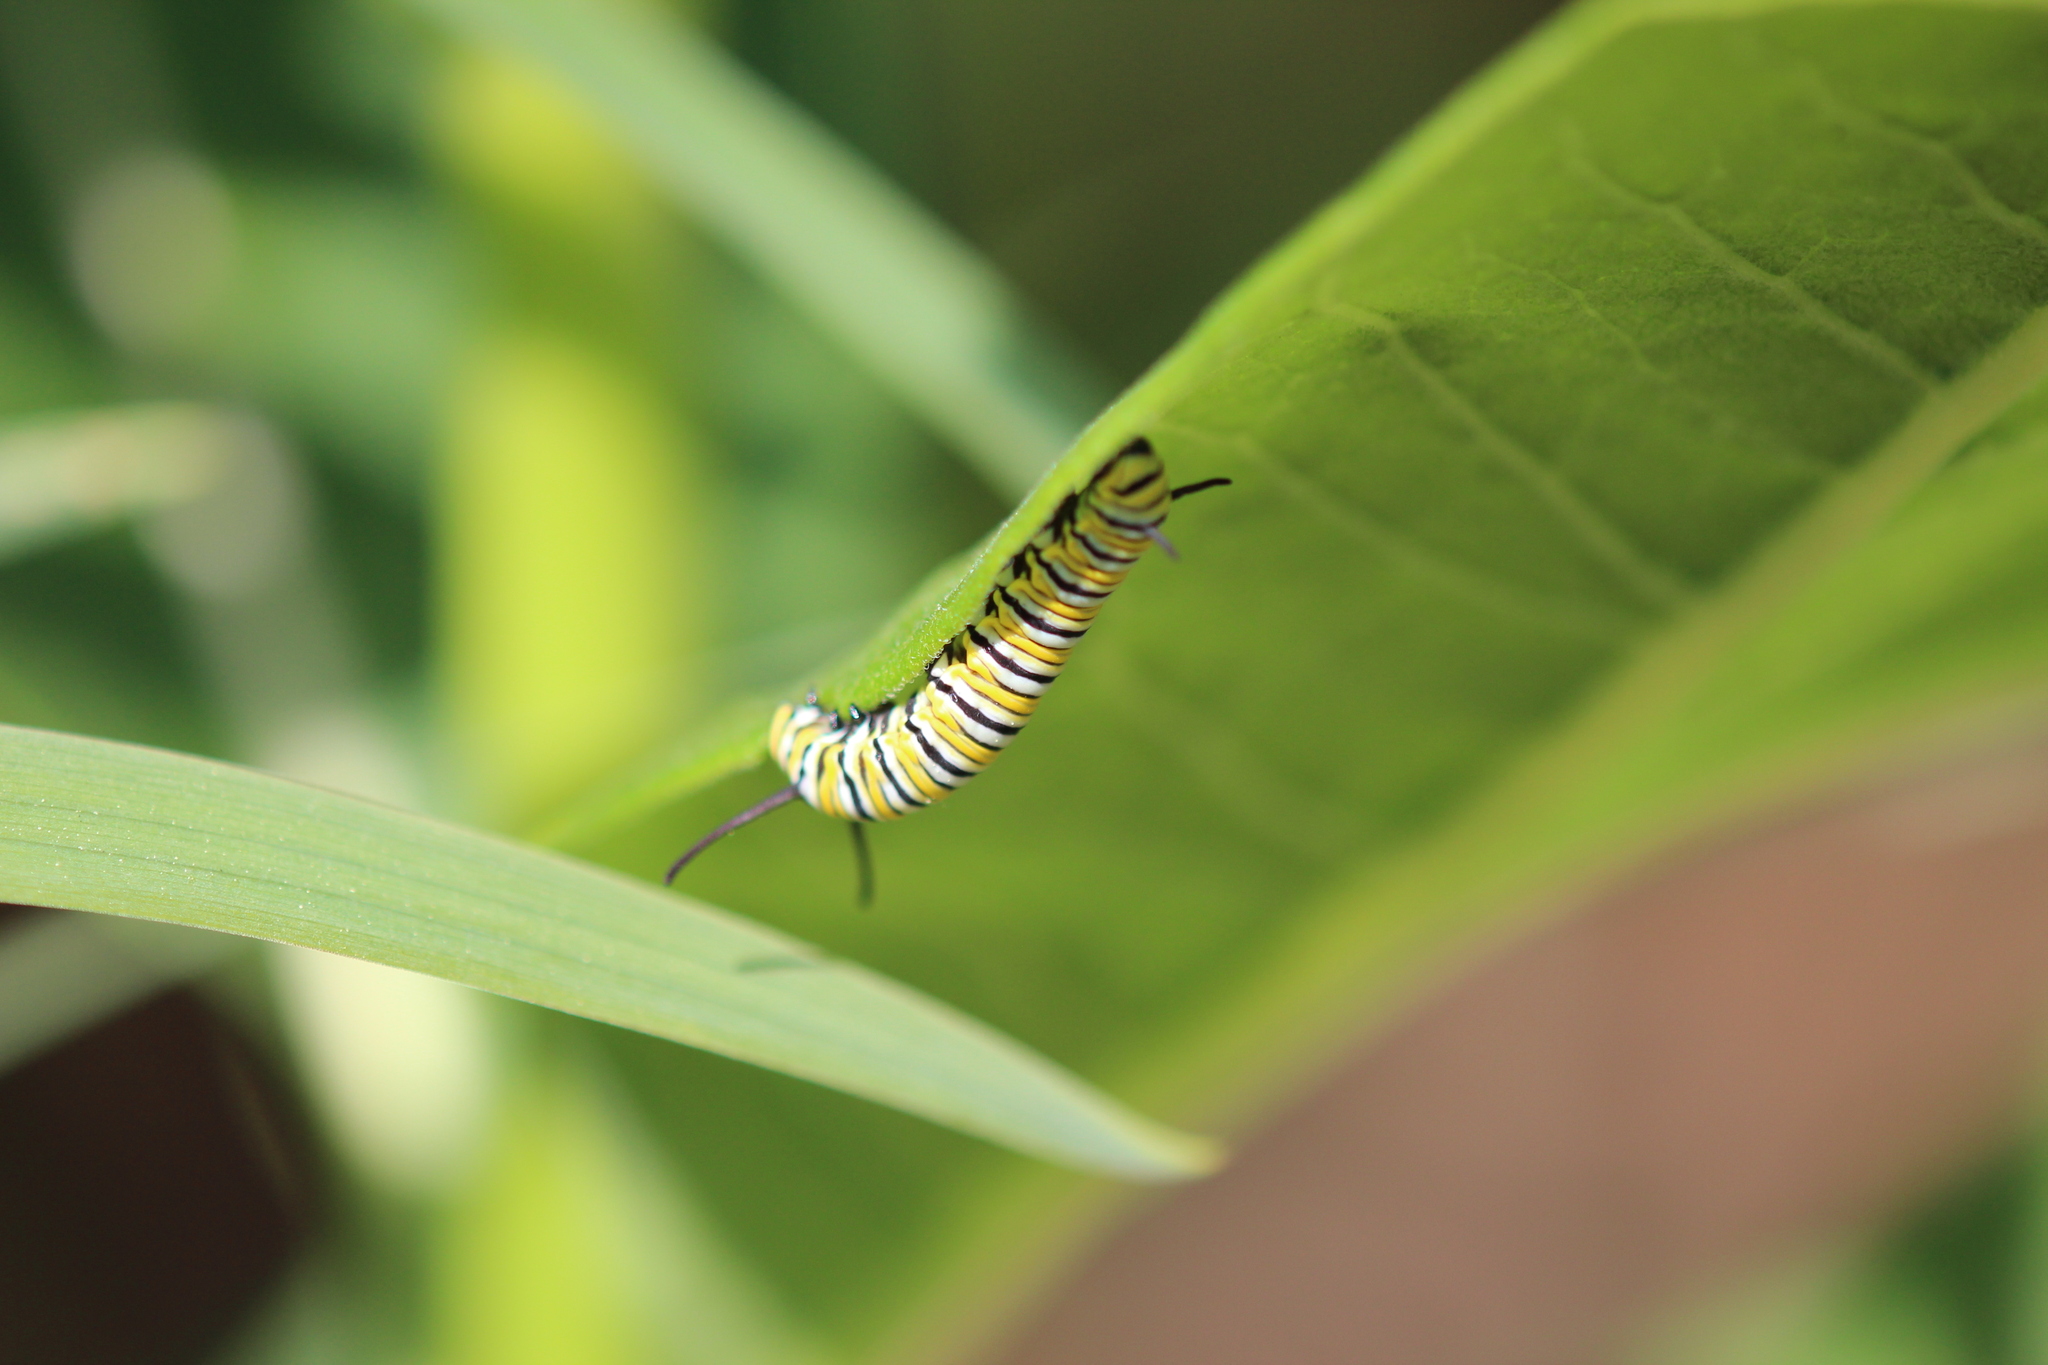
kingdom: Animalia
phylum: Arthropoda
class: Insecta
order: Lepidoptera
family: Nymphalidae
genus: Danaus
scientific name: Danaus plexippus
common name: Monarch
